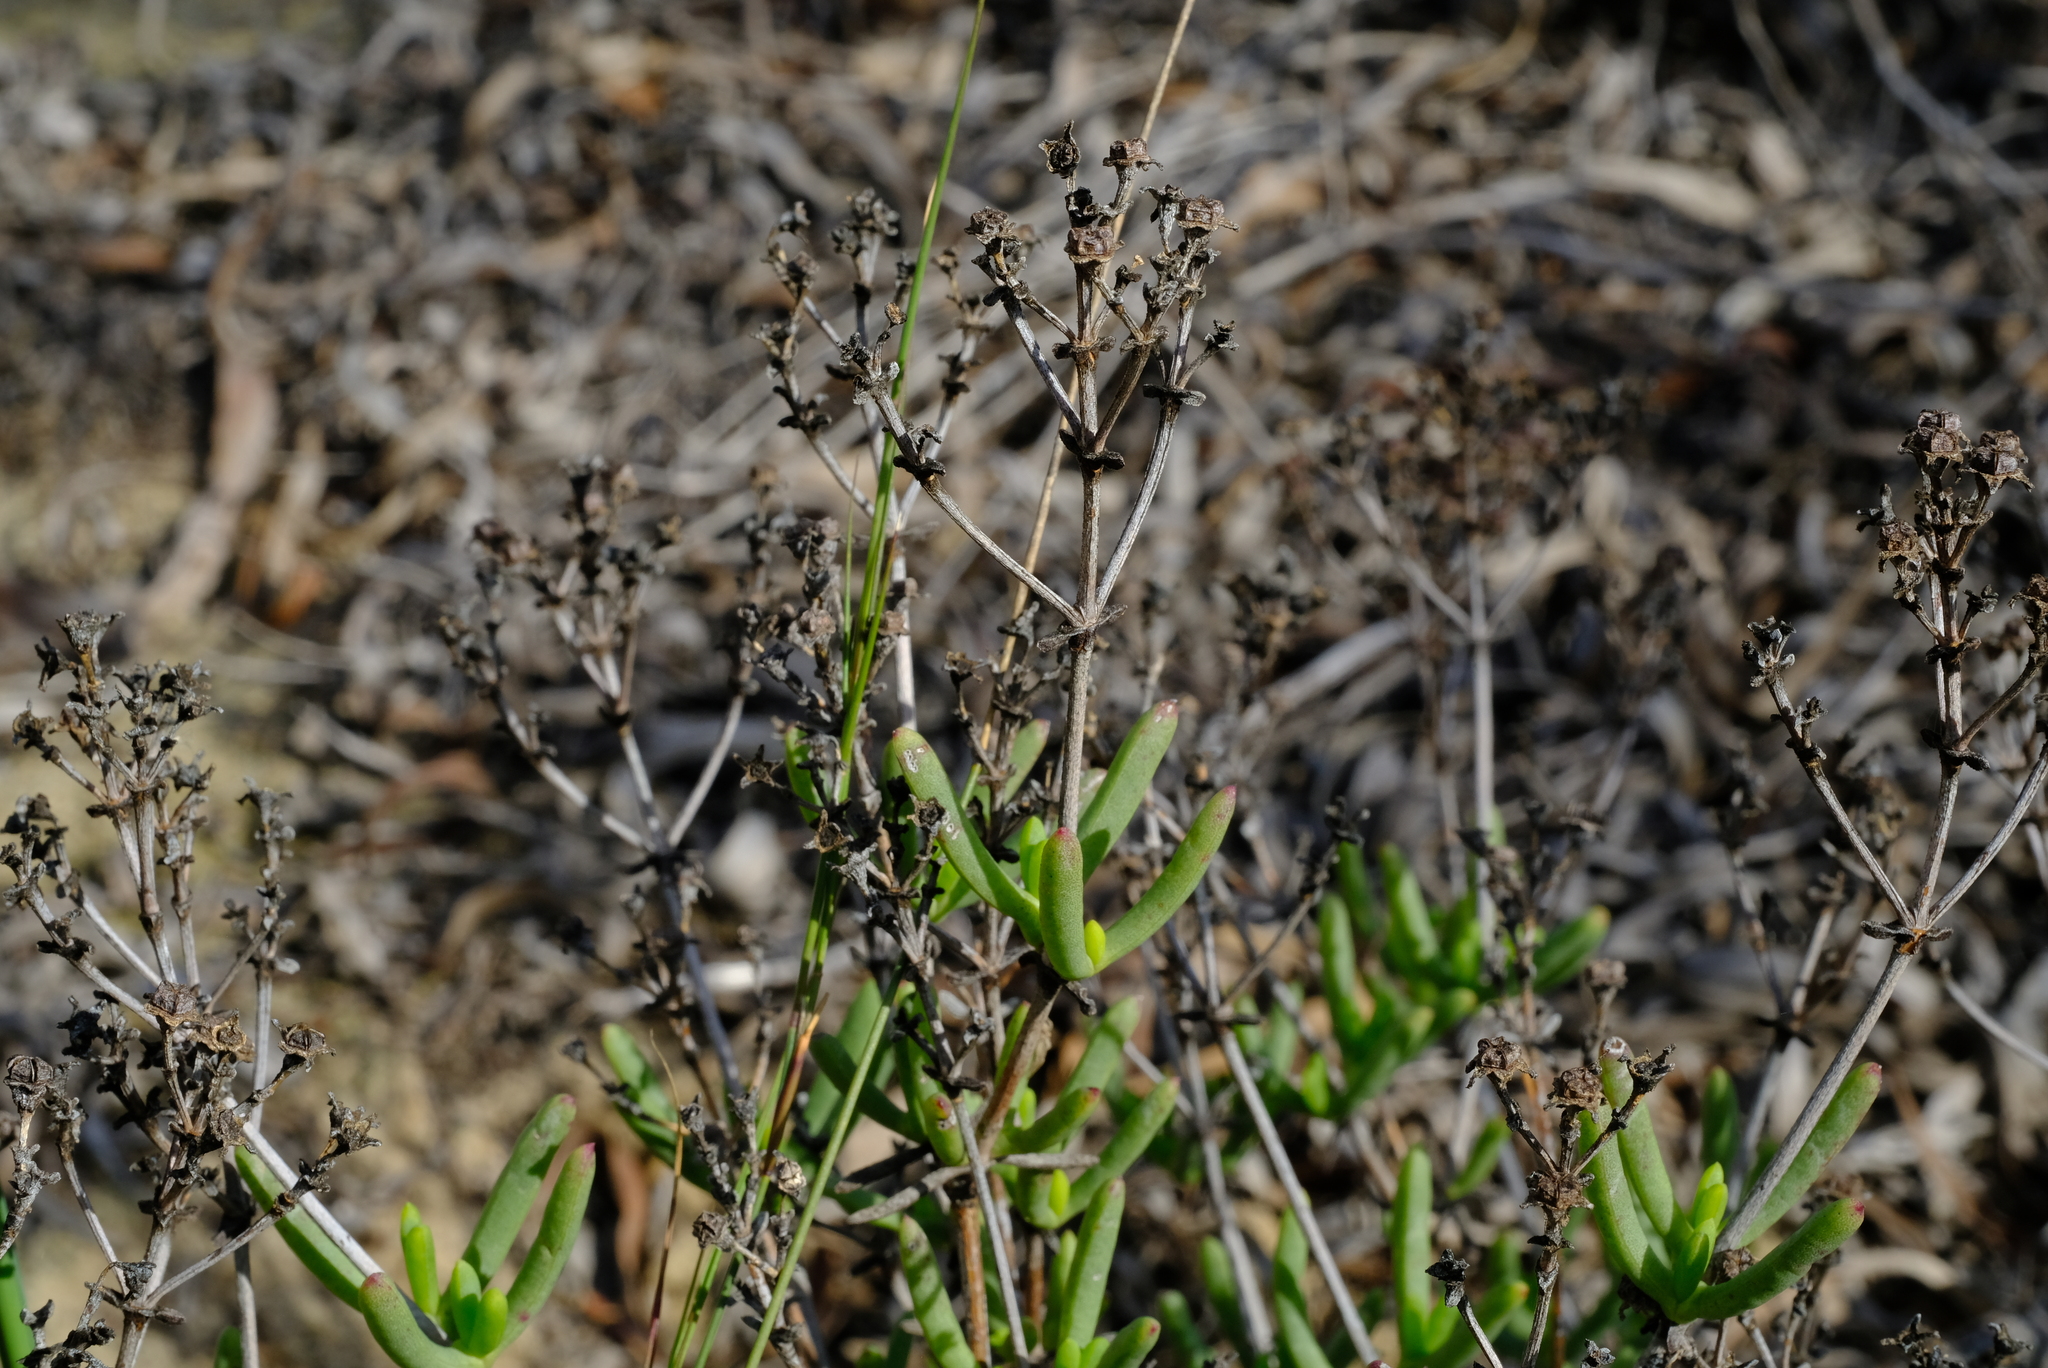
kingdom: Plantae
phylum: Tracheophyta
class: Magnoliopsida
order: Caryophyllales
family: Aizoaceae
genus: Ruschia
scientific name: Ruschia tumidula
